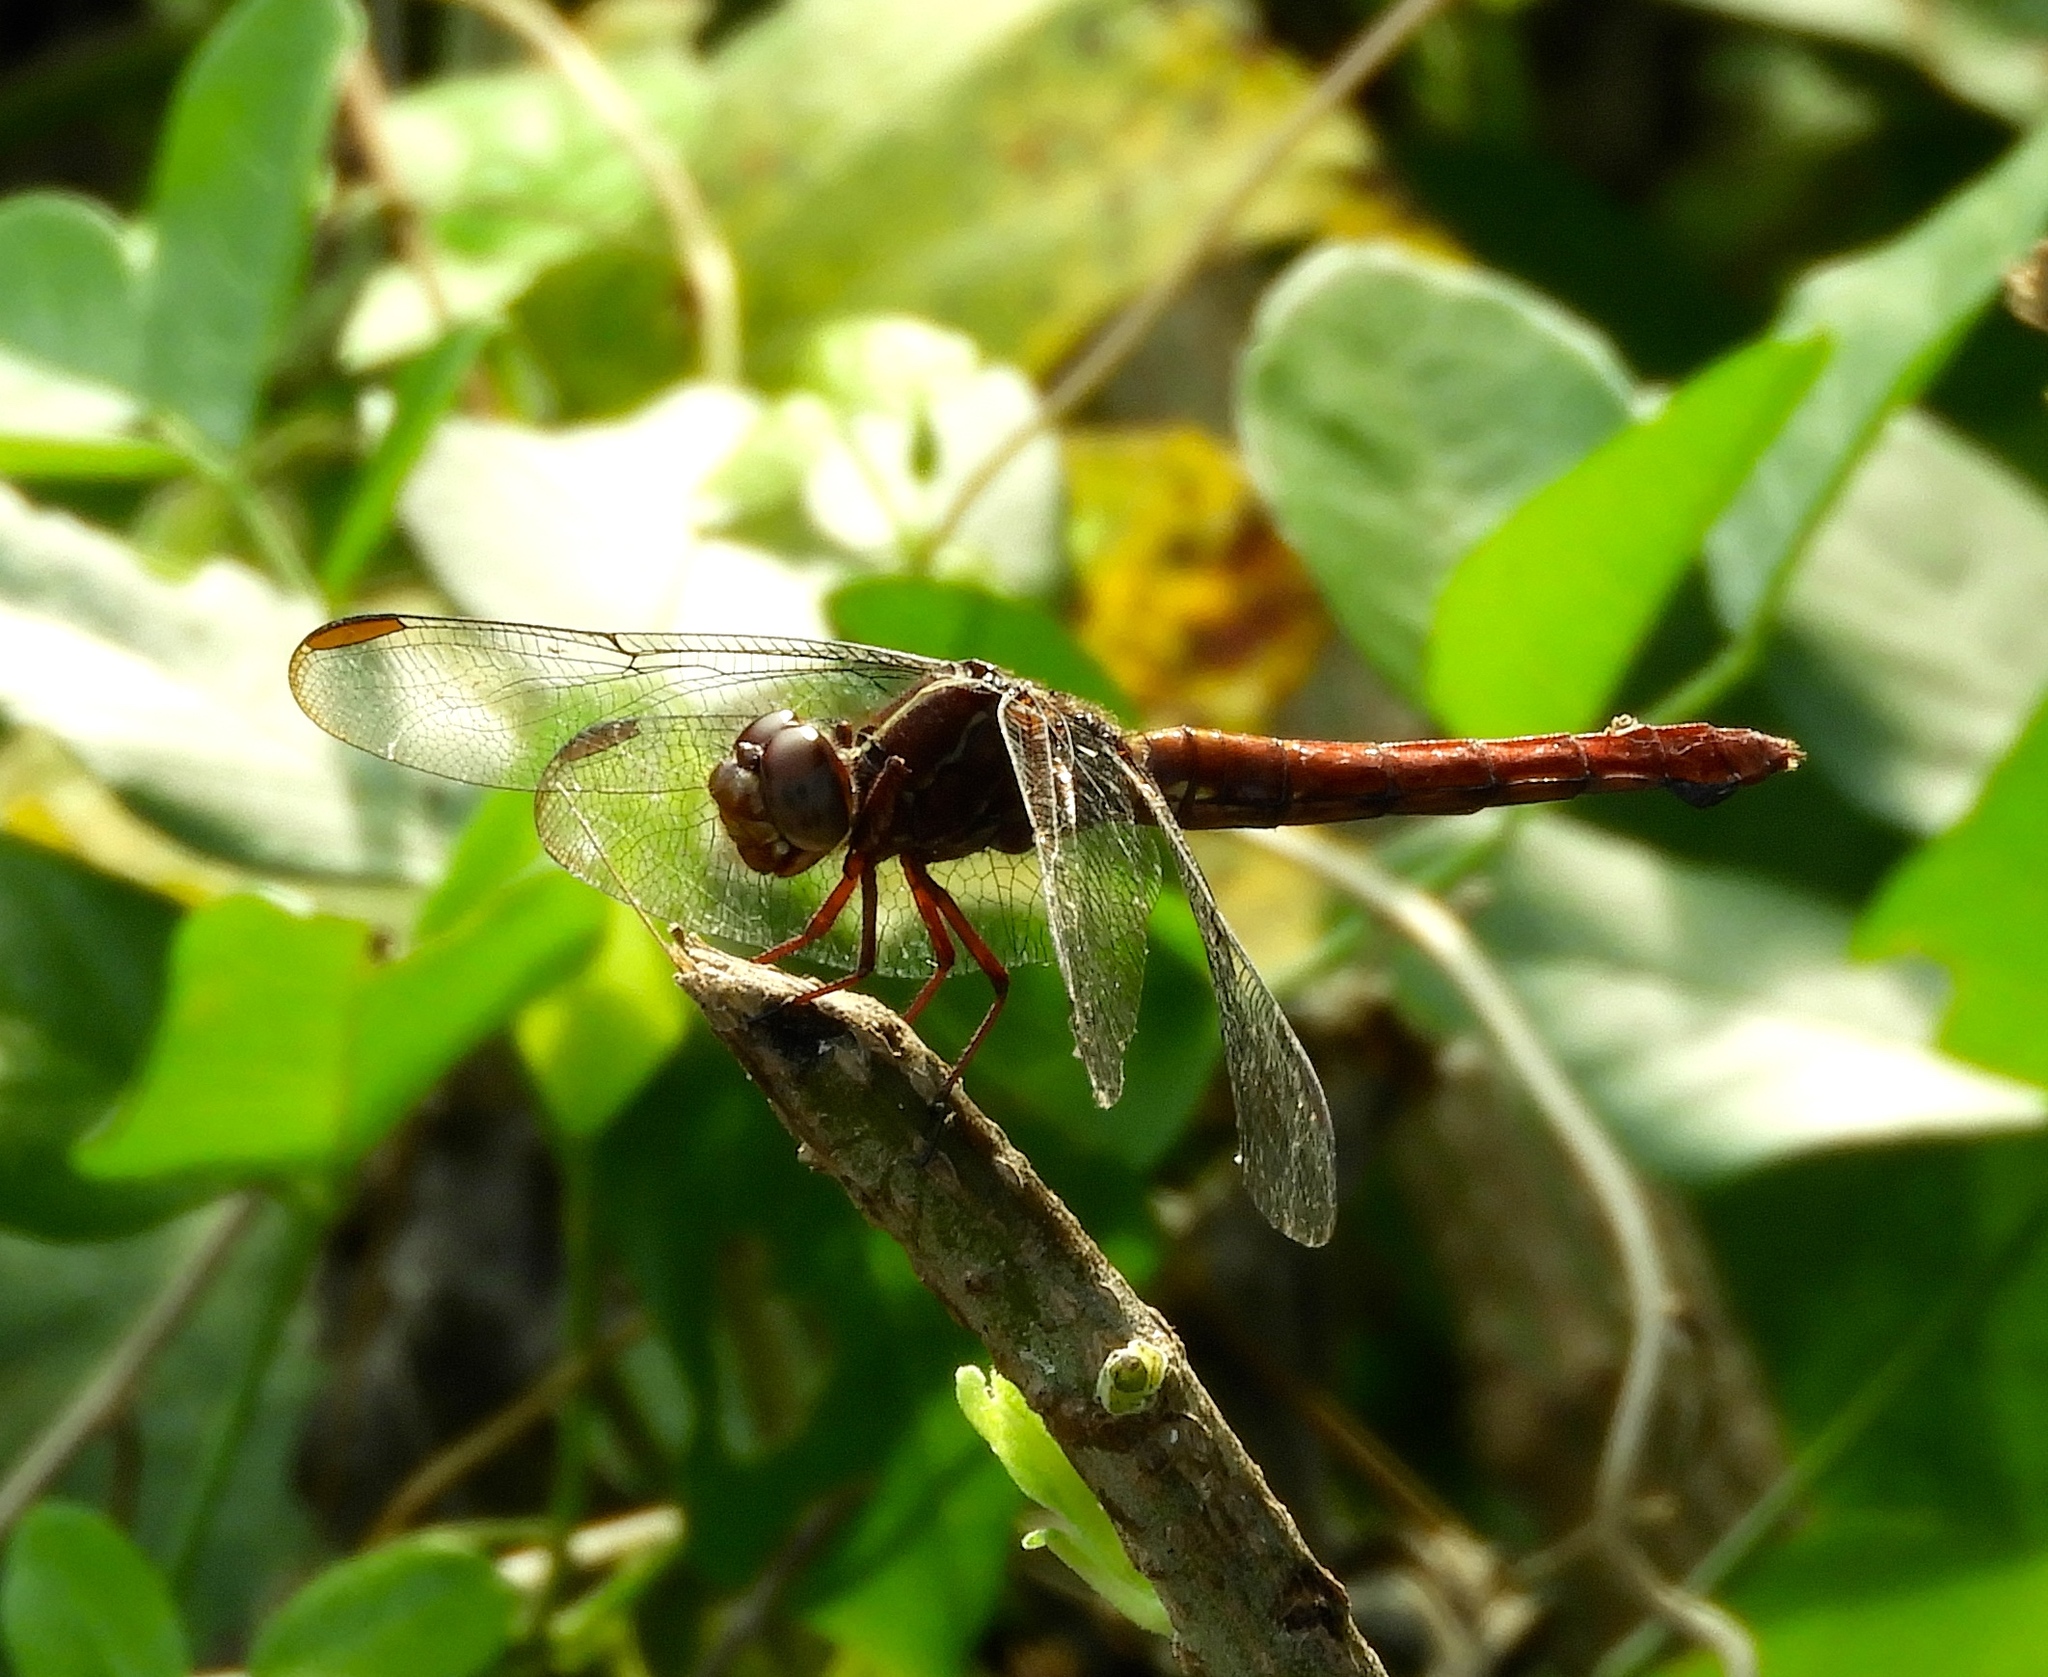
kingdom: Animalia
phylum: Arthropoda
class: Insecta
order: Odonata
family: Libellulidae
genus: Orthemis
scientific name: Orthemis discolor
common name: Carmine skimmer
